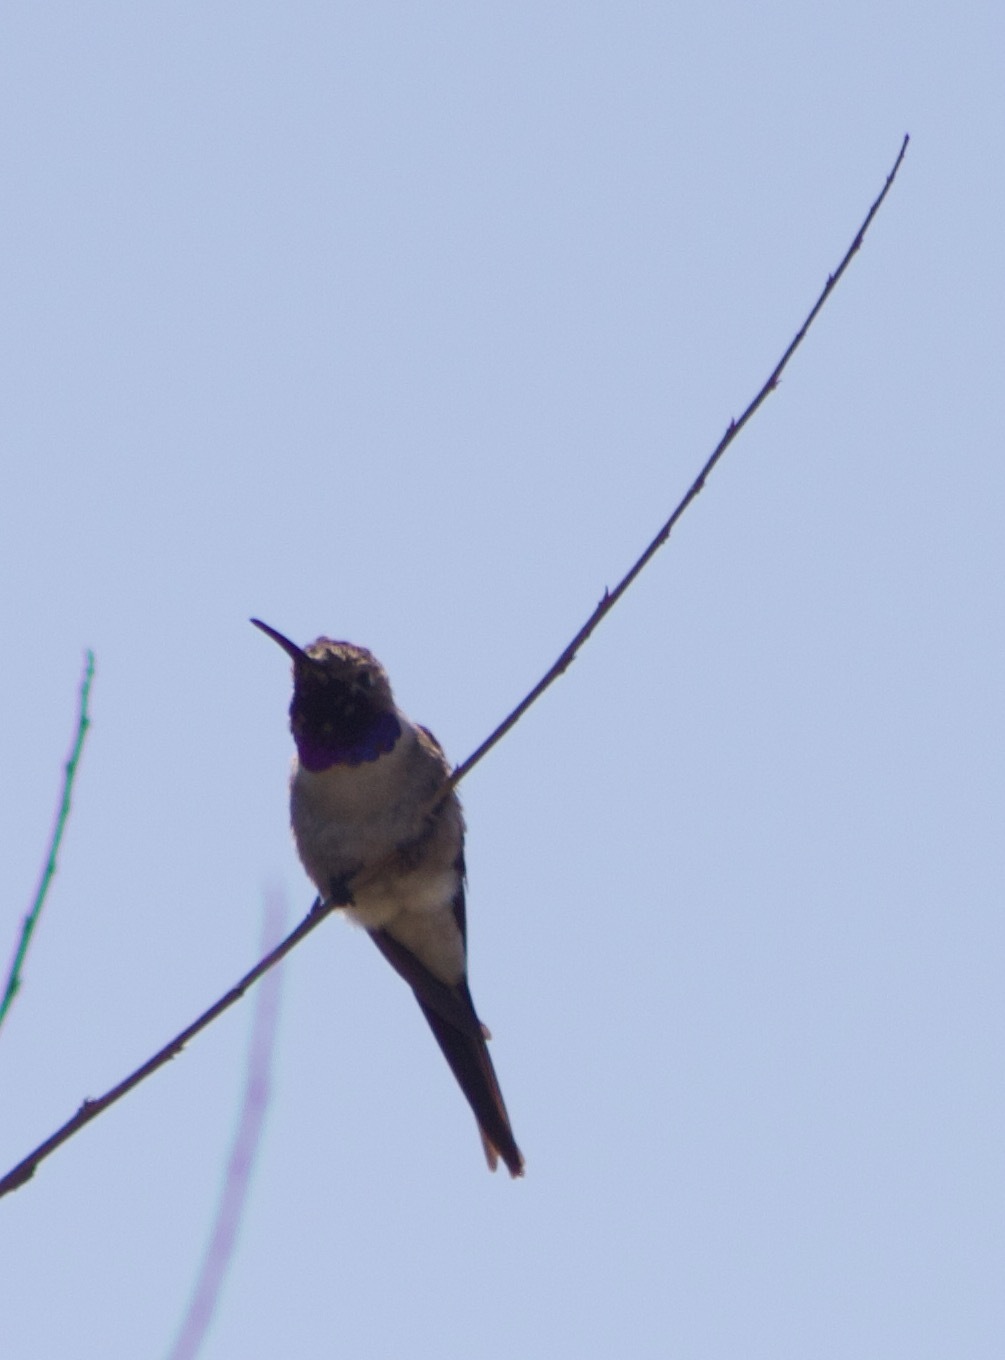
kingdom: Animalia
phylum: Chordata
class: Aves
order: Apodiformes
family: Trochilidae
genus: Rhodopis
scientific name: Rhodopis vesper
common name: Oasis hummingbird
